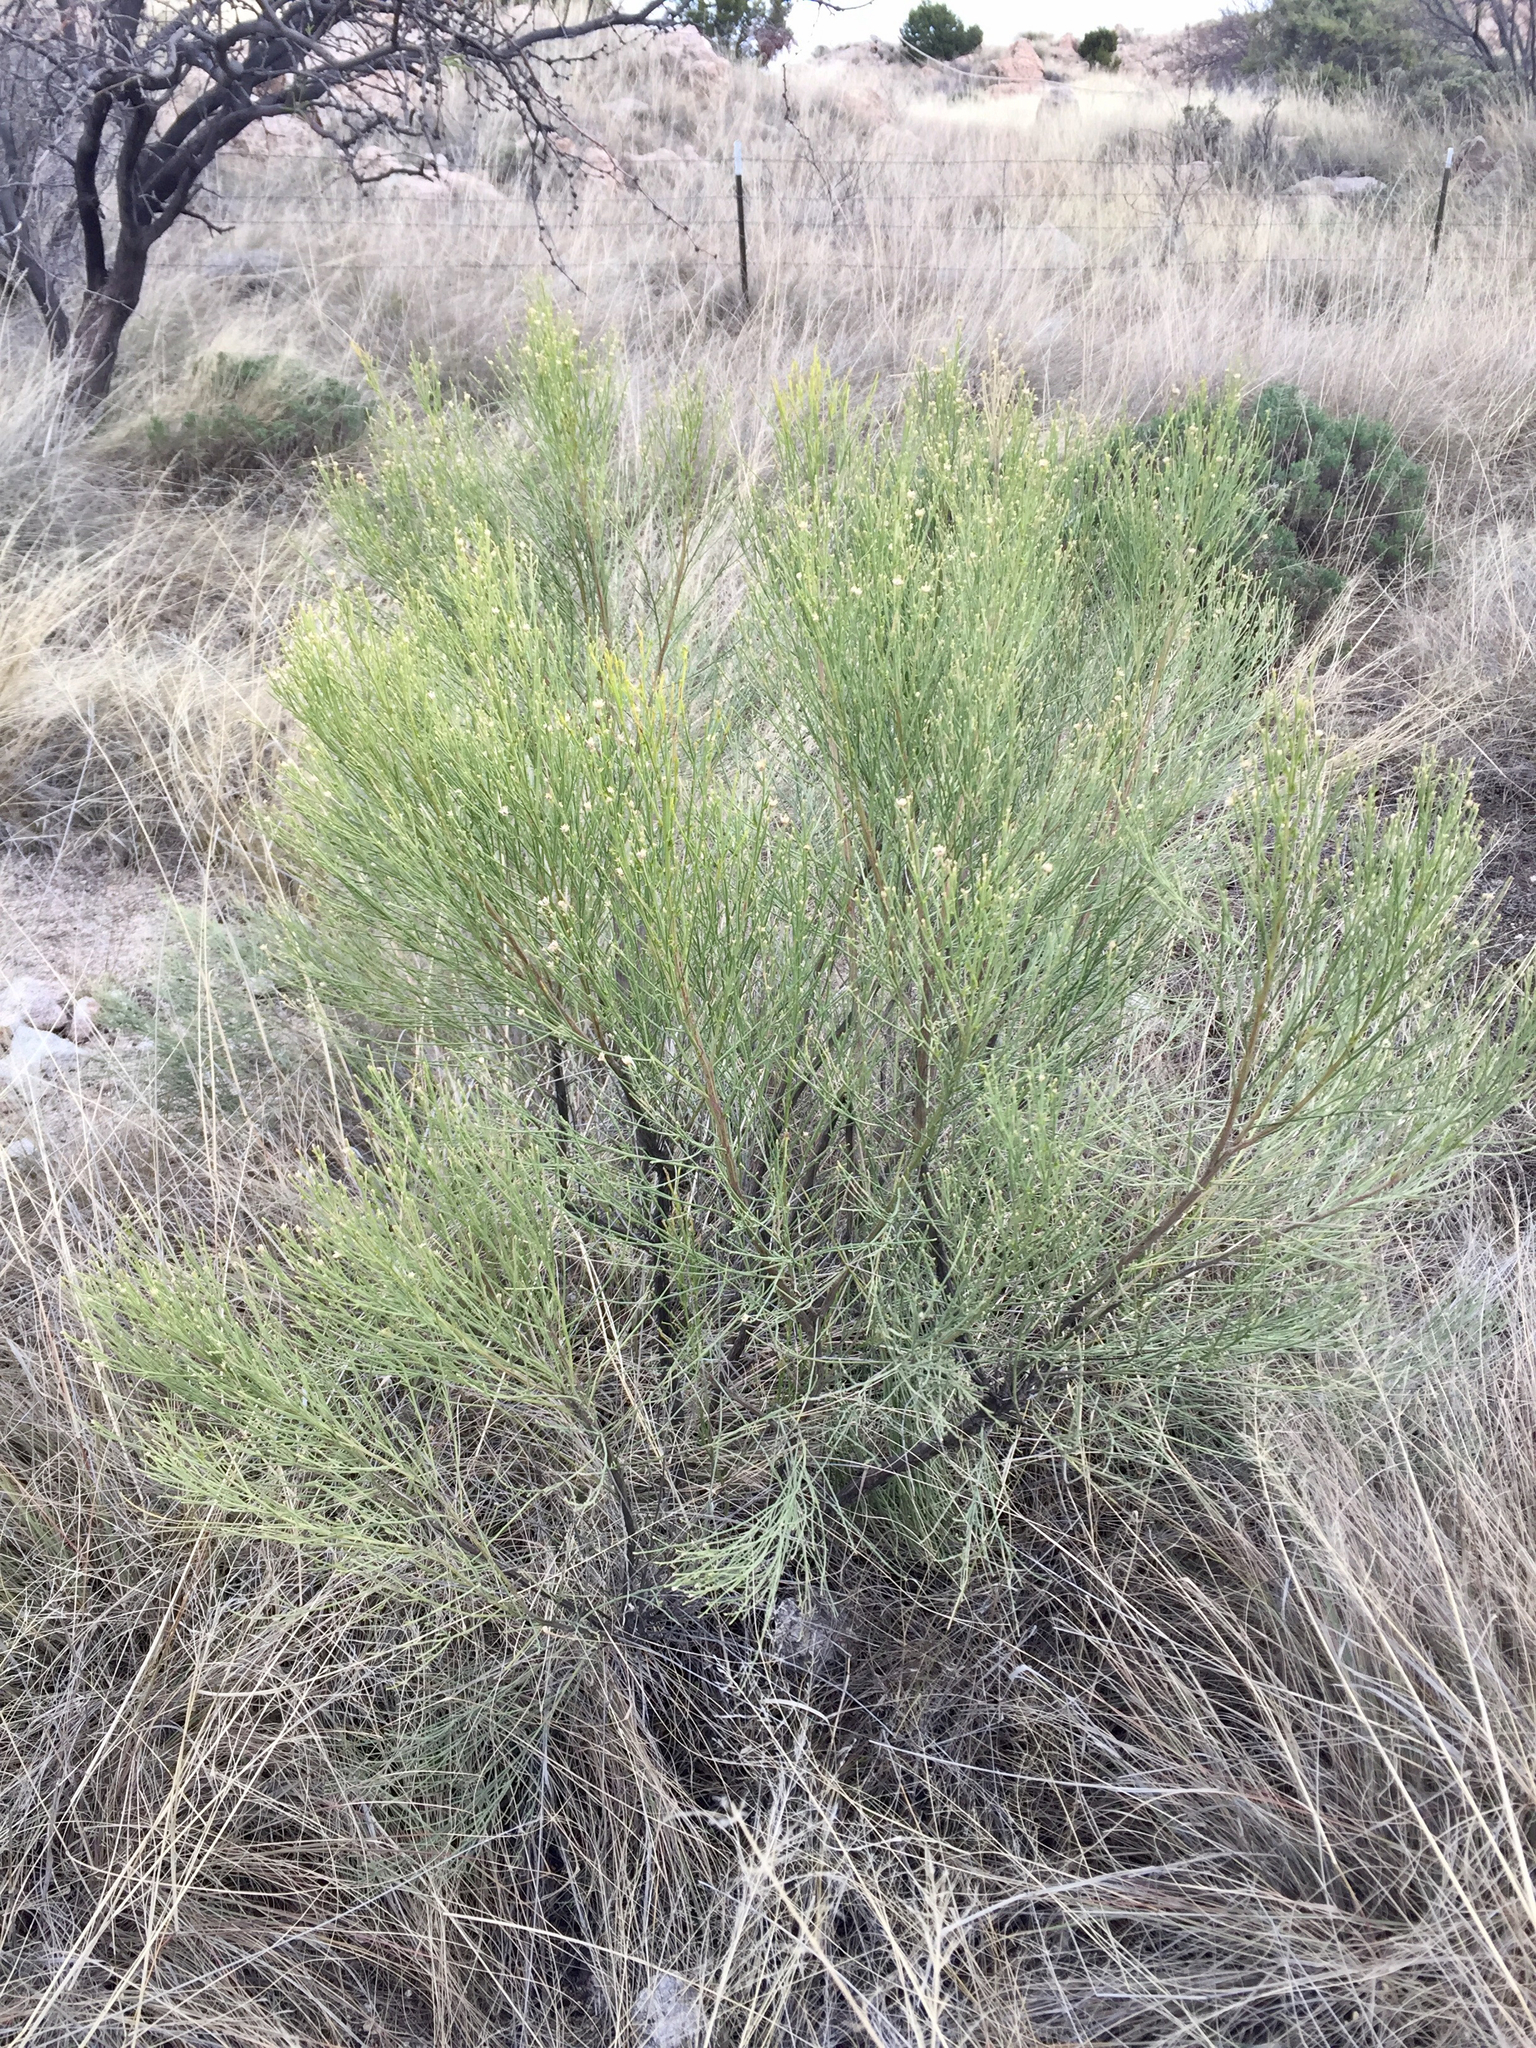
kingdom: Plantae
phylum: Tracheophyta
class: Magnoliopsida
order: Asterales
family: Asteraceae
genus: Baccharis
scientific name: Baccharis sarothroides
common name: Desert-broom
